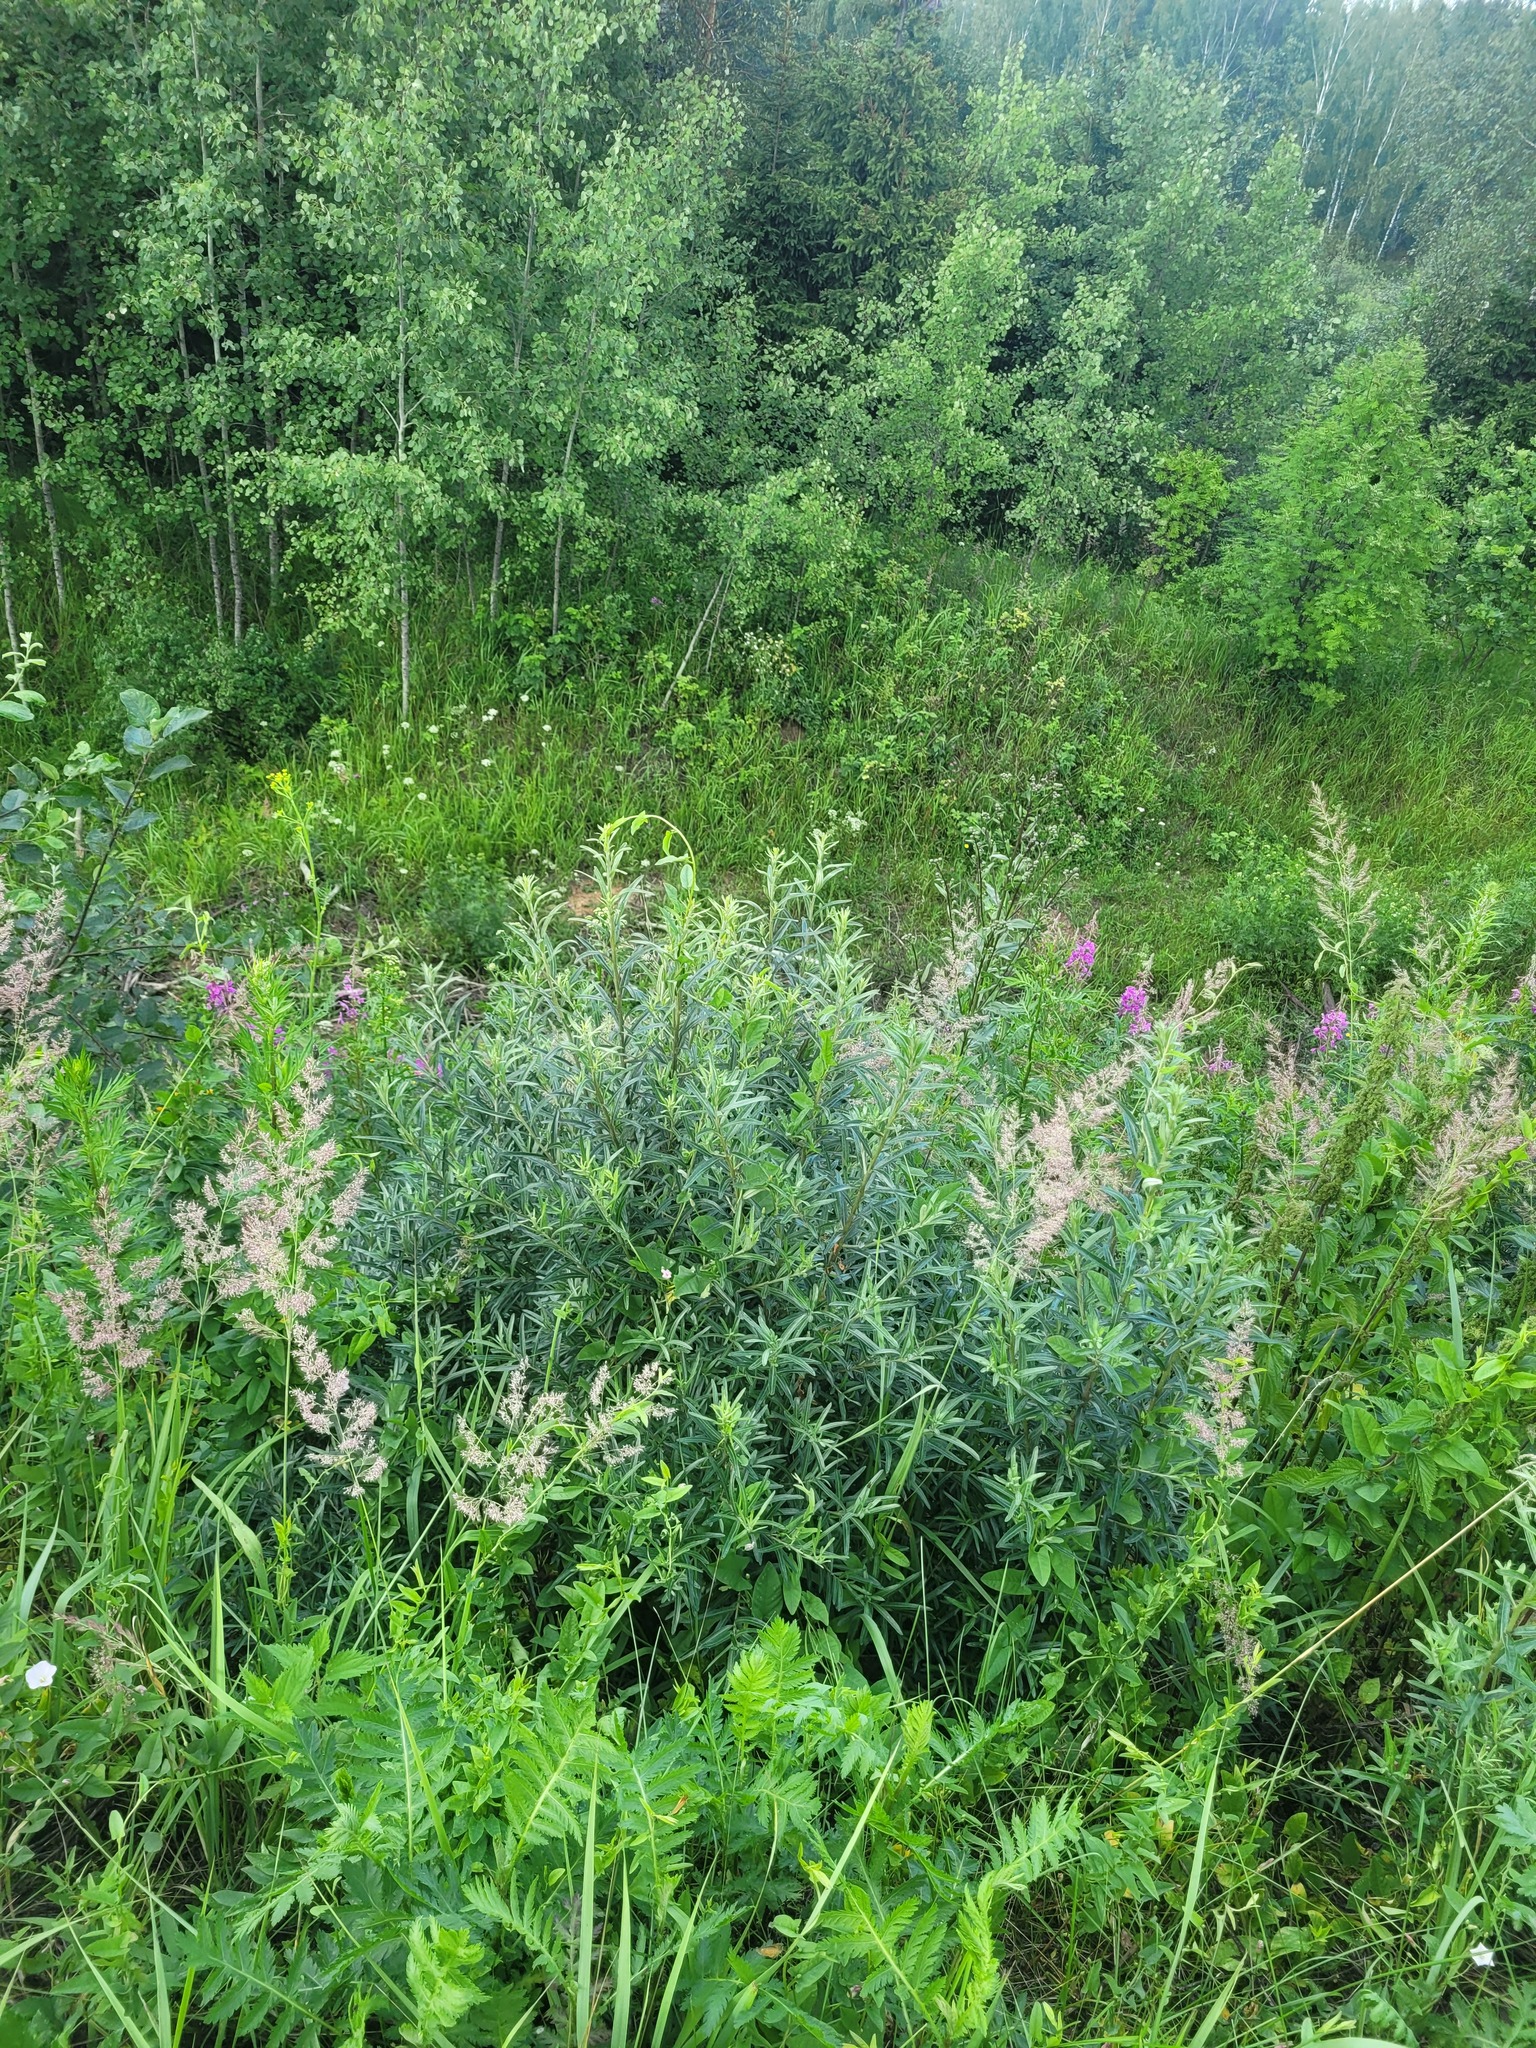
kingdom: Plantae
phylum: Tracheophyta
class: Magnoliopsida
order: Rosales
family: Elaeagnaceae
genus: Hippophae
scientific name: Hippophae rhamnoides
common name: Sea-buckthorn
